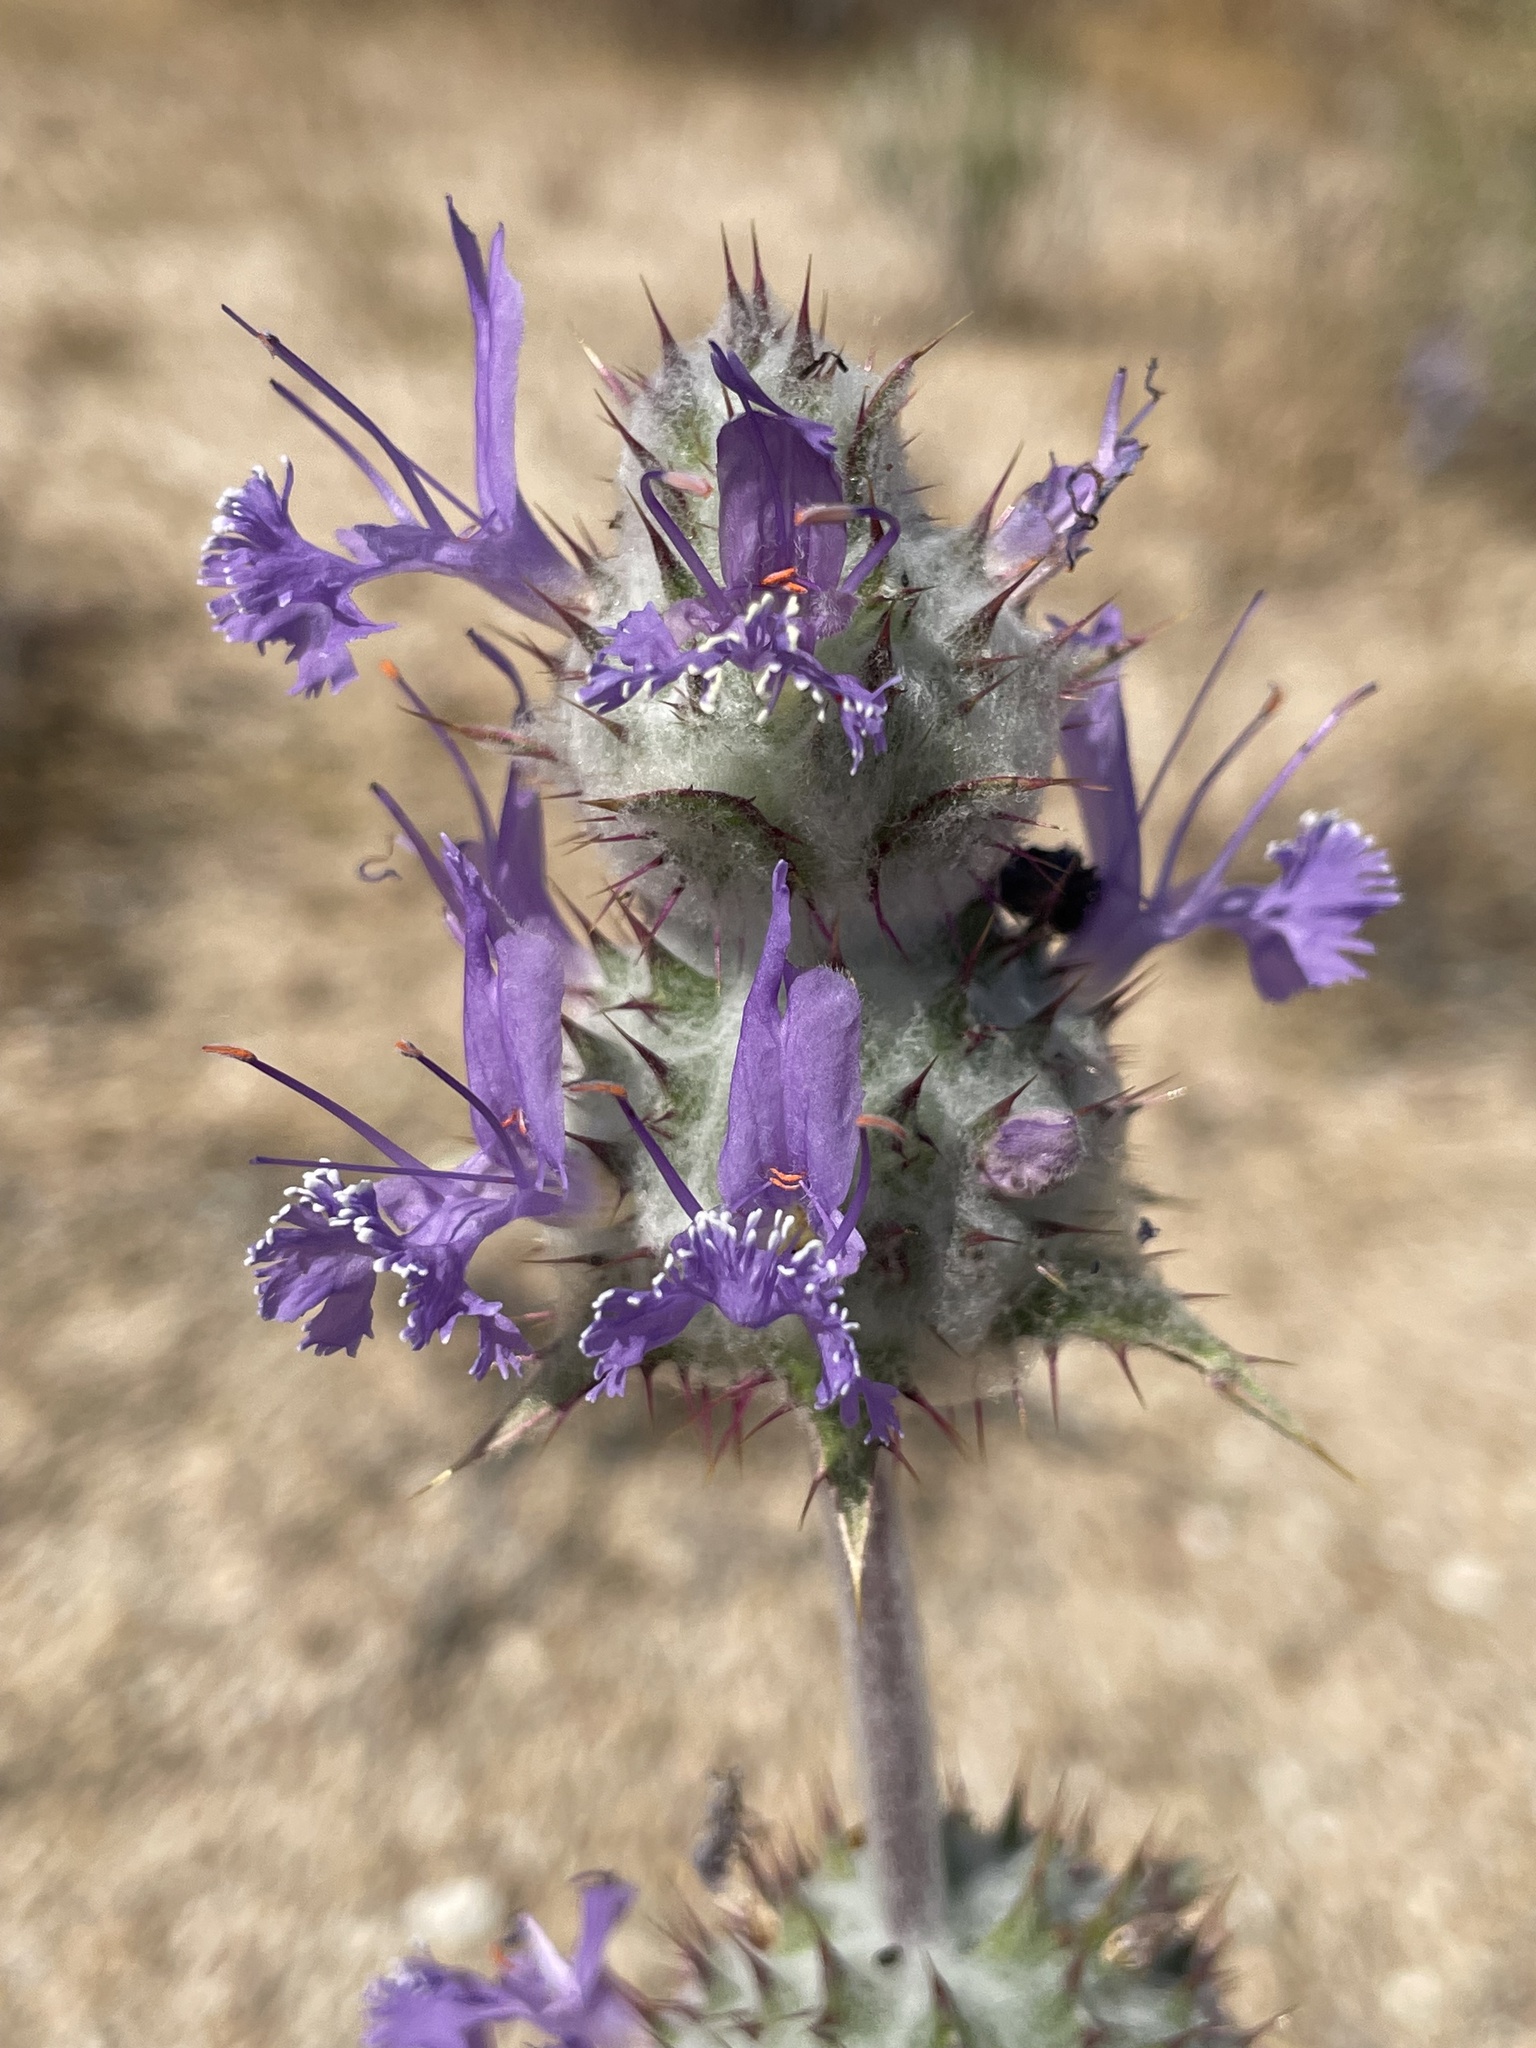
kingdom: Plantae
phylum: Tracheophyta
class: Magnoliopsida
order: Lamiales
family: Lamiaceae
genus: Salvia
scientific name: Salvia carduacea
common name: Thistle sage
